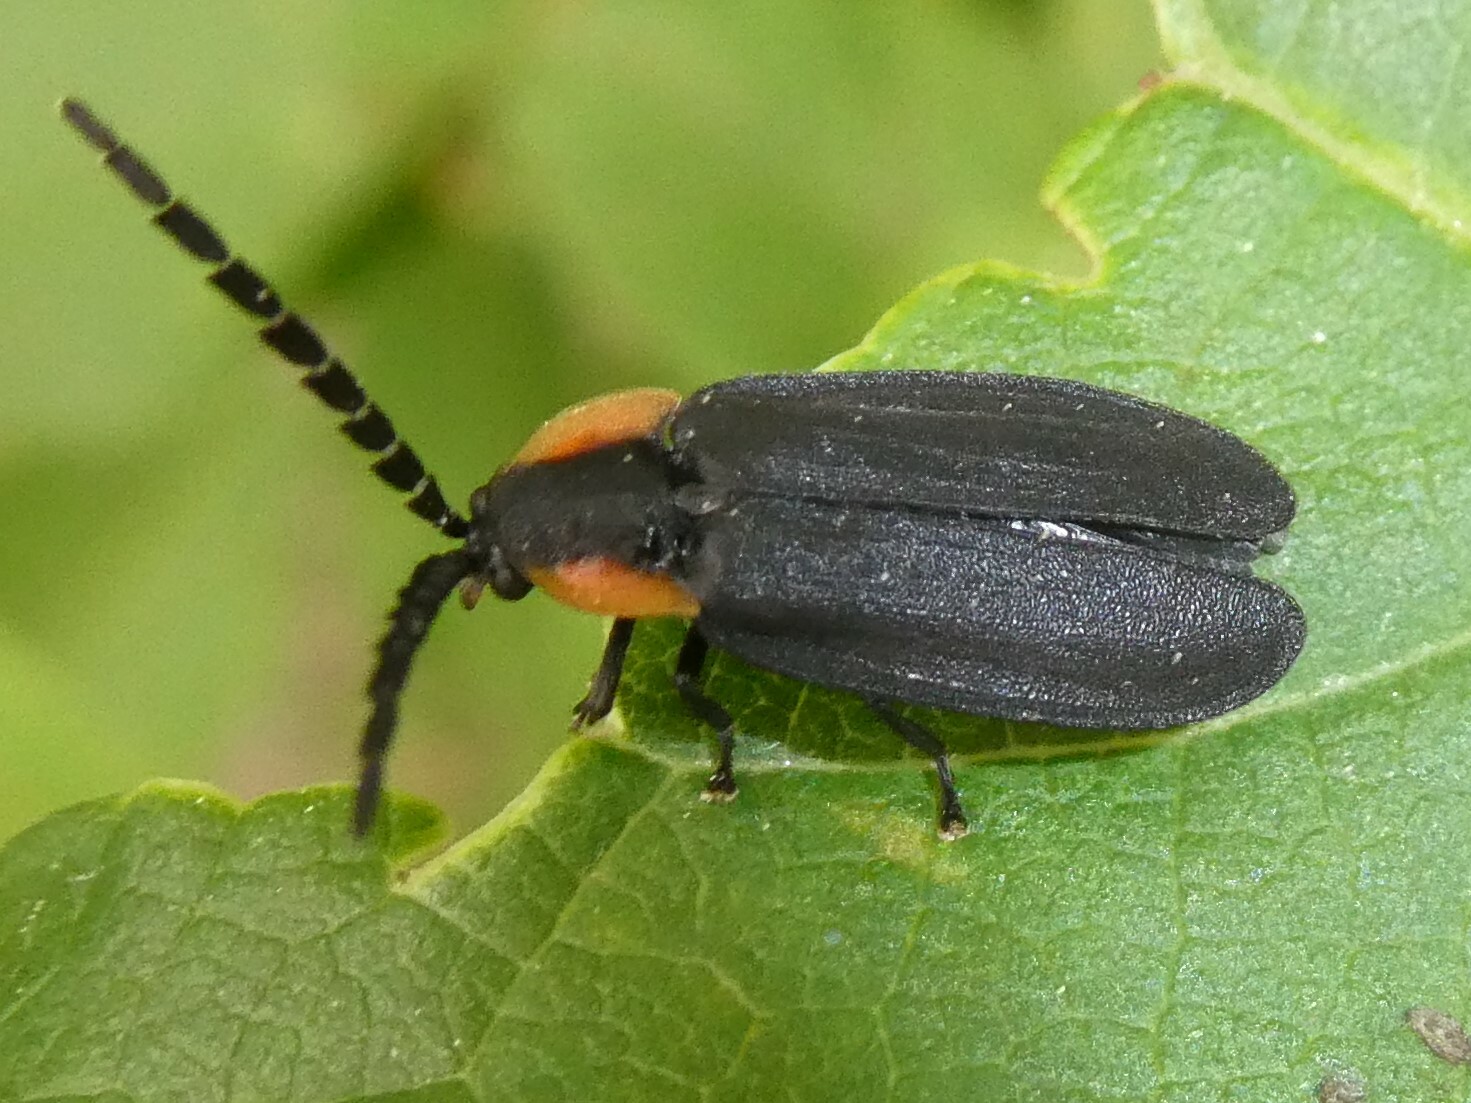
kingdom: Animalia
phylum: Arthropoda
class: Insecta
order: Coleoptera
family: Lampyridae
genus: Lucidota
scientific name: Lucidota atra
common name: Black firefly
